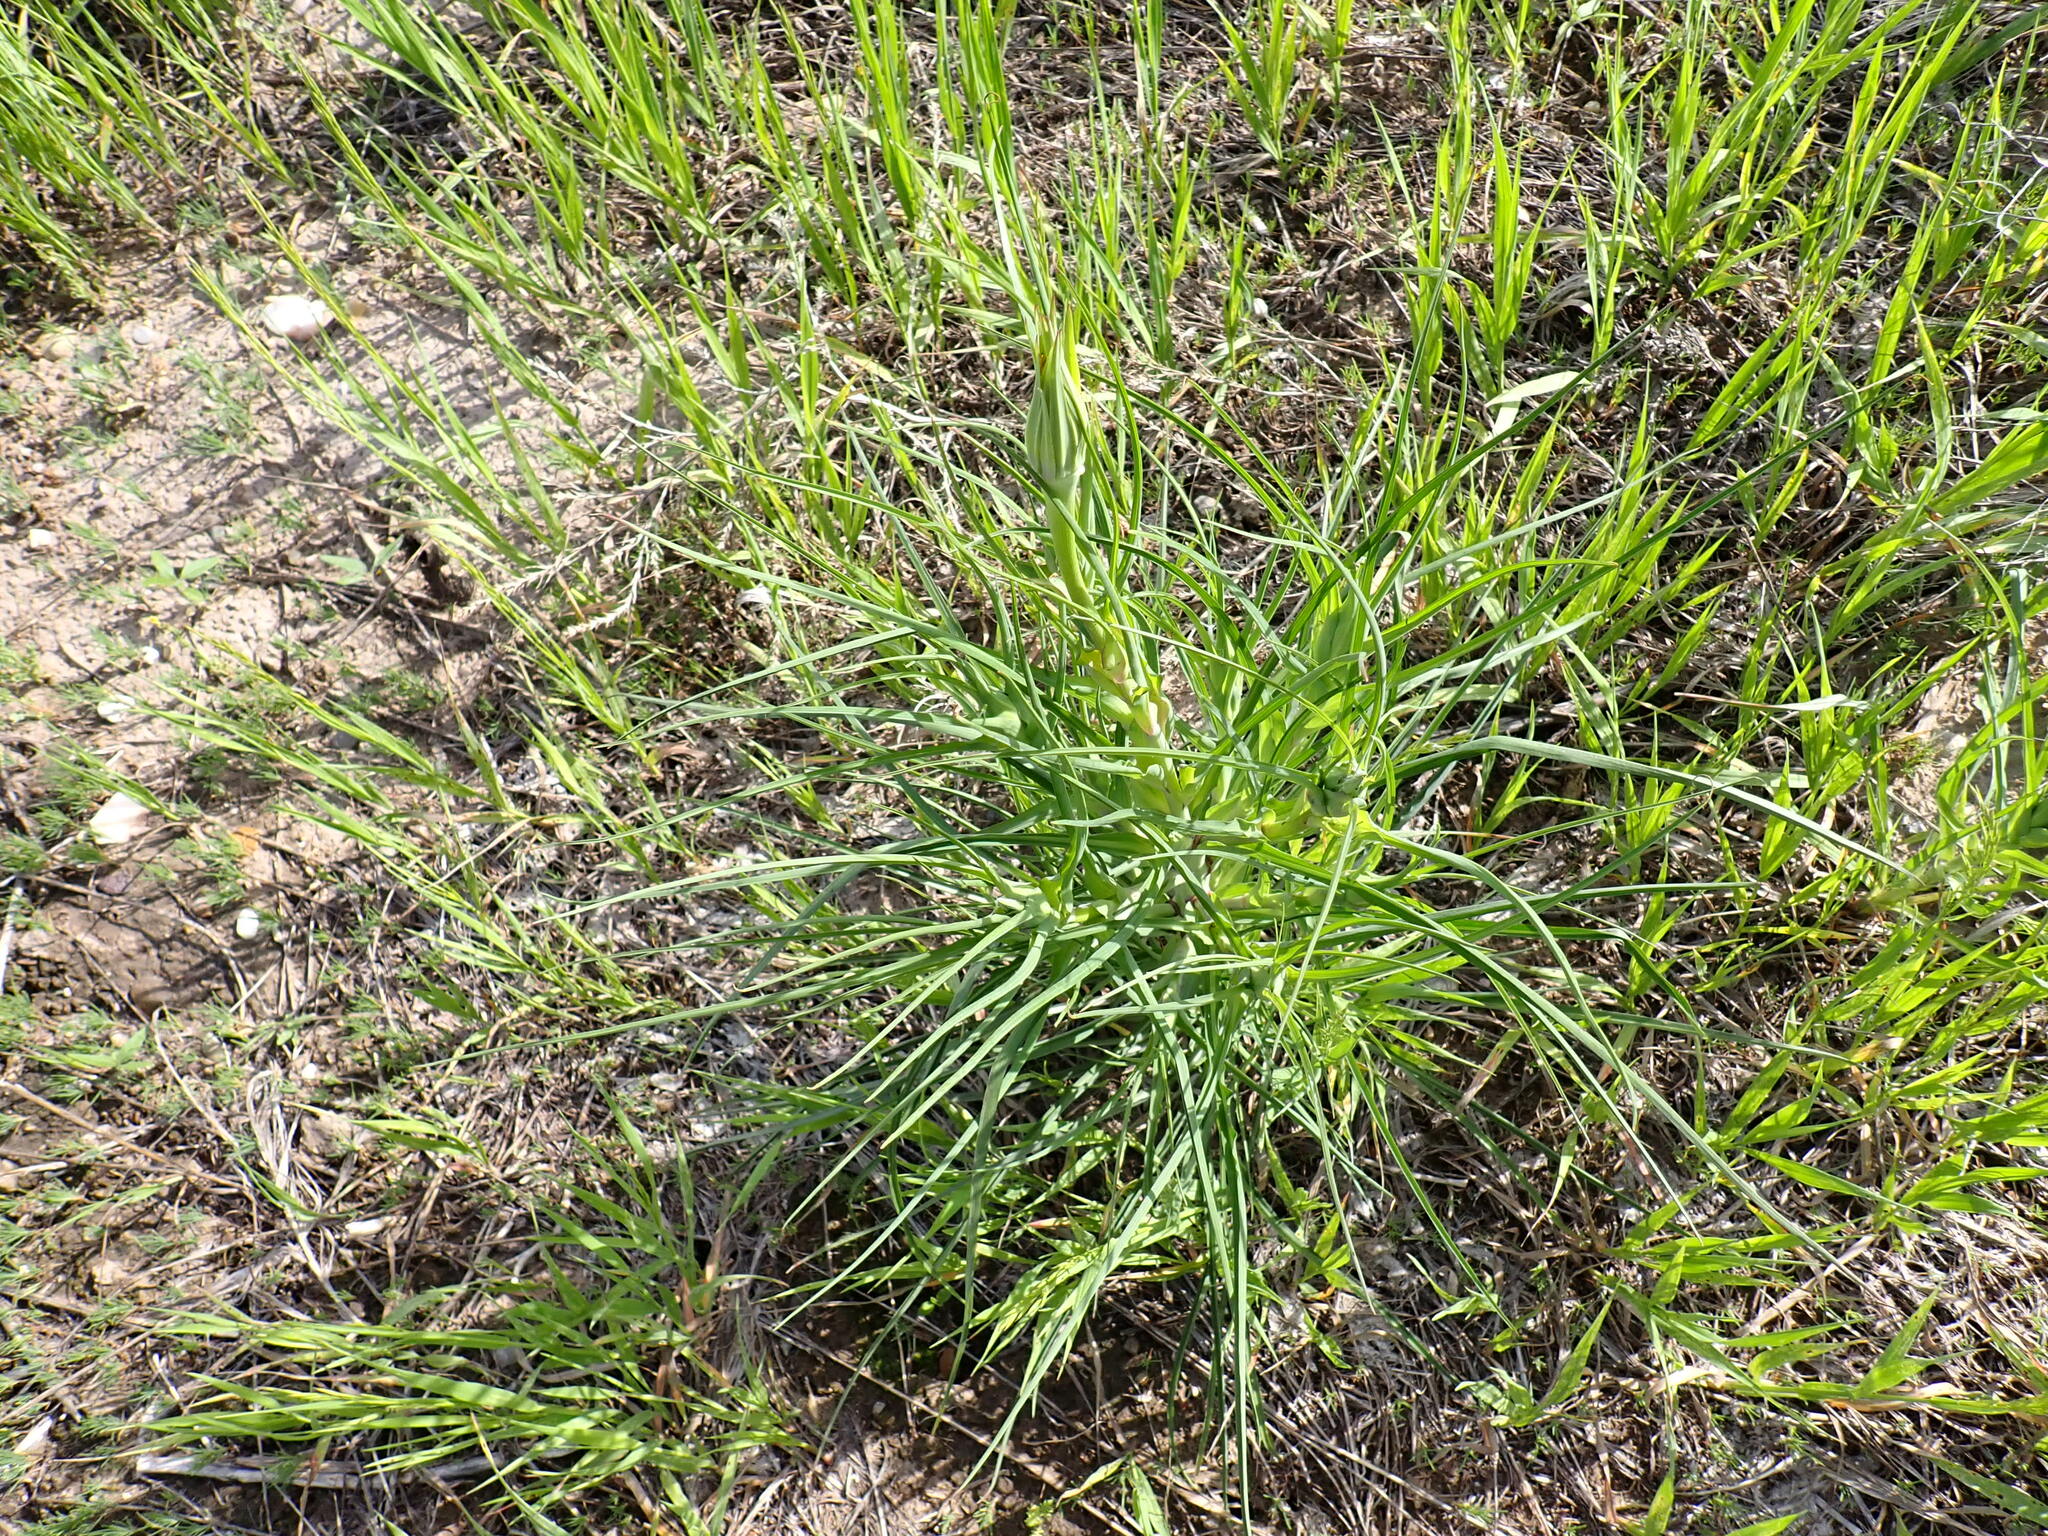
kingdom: Plantae
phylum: Tracheophyta
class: Magnoliopsida
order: Asterales
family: Asteraceae
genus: Tragopogon
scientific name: Tragopogon dubius
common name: Yellow salsify
